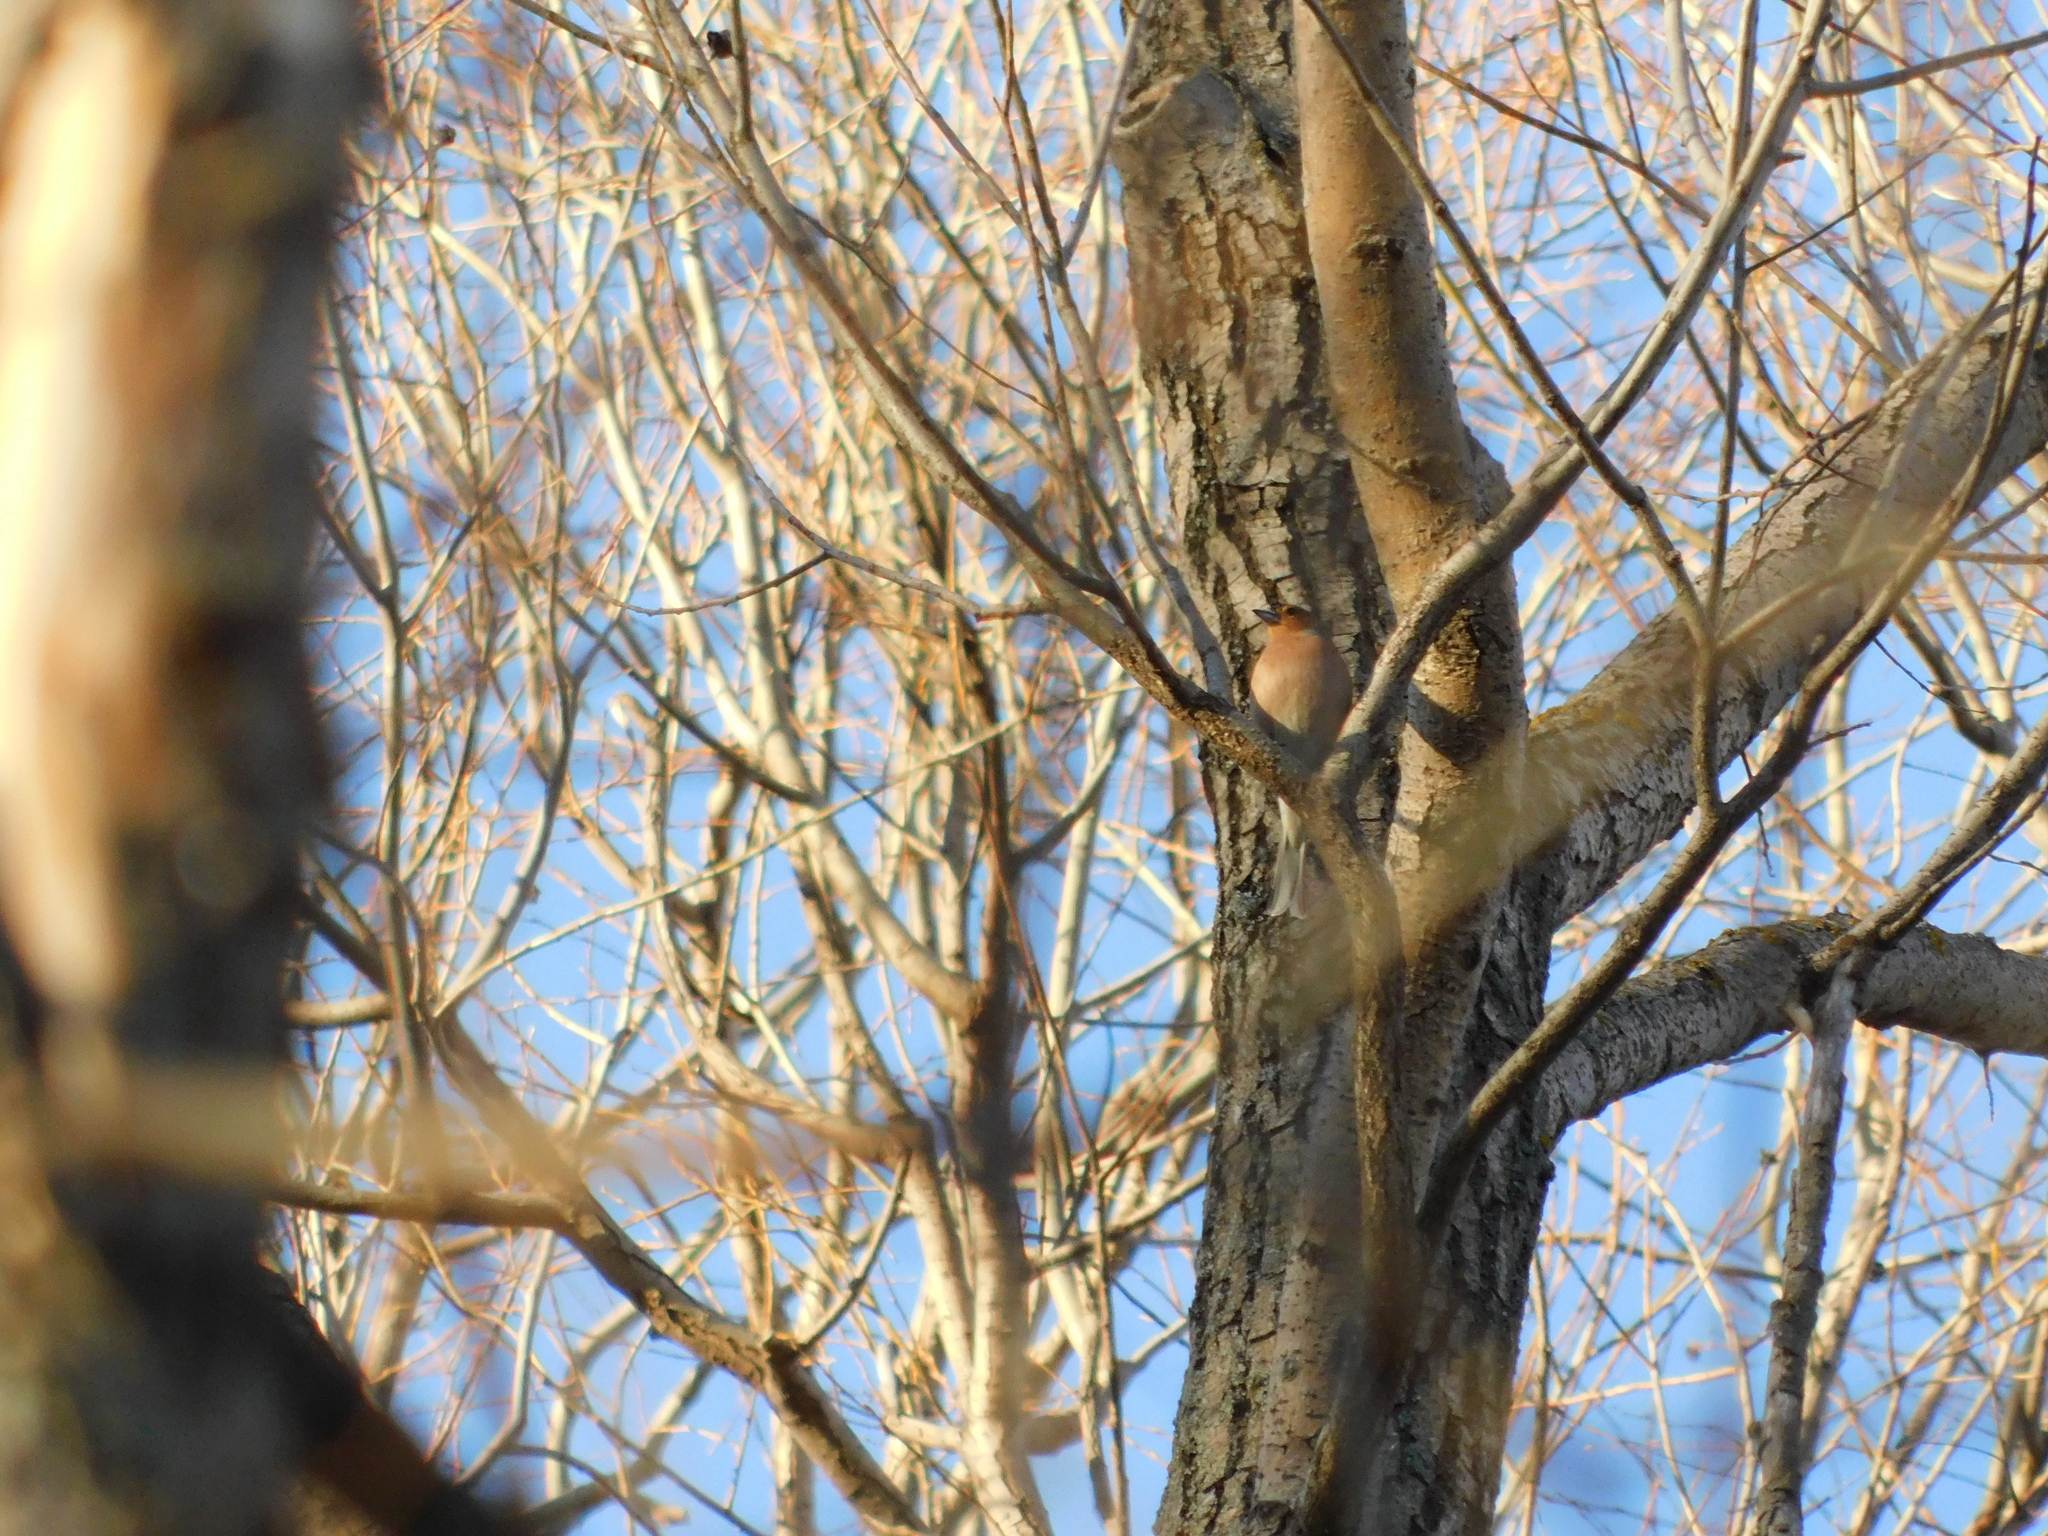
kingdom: Animalia
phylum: Chordata
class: Aves
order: Passeriformes
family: Fringillidae
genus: Fringilla
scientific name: Fringilla coelebs
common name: Common chaffinch
